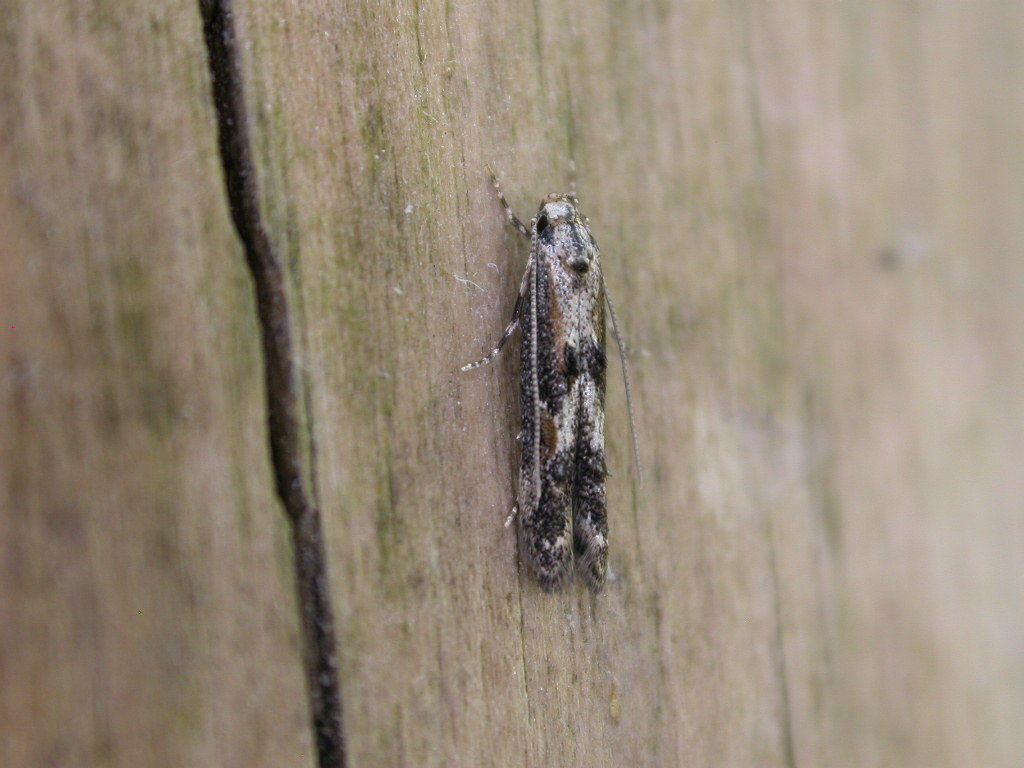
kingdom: Animalia
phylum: Arthropoda
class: Insecta
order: Lepidoptera
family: Elachistidae
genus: Blastodacna
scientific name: Blastodacna atra
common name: Apple pith moth
